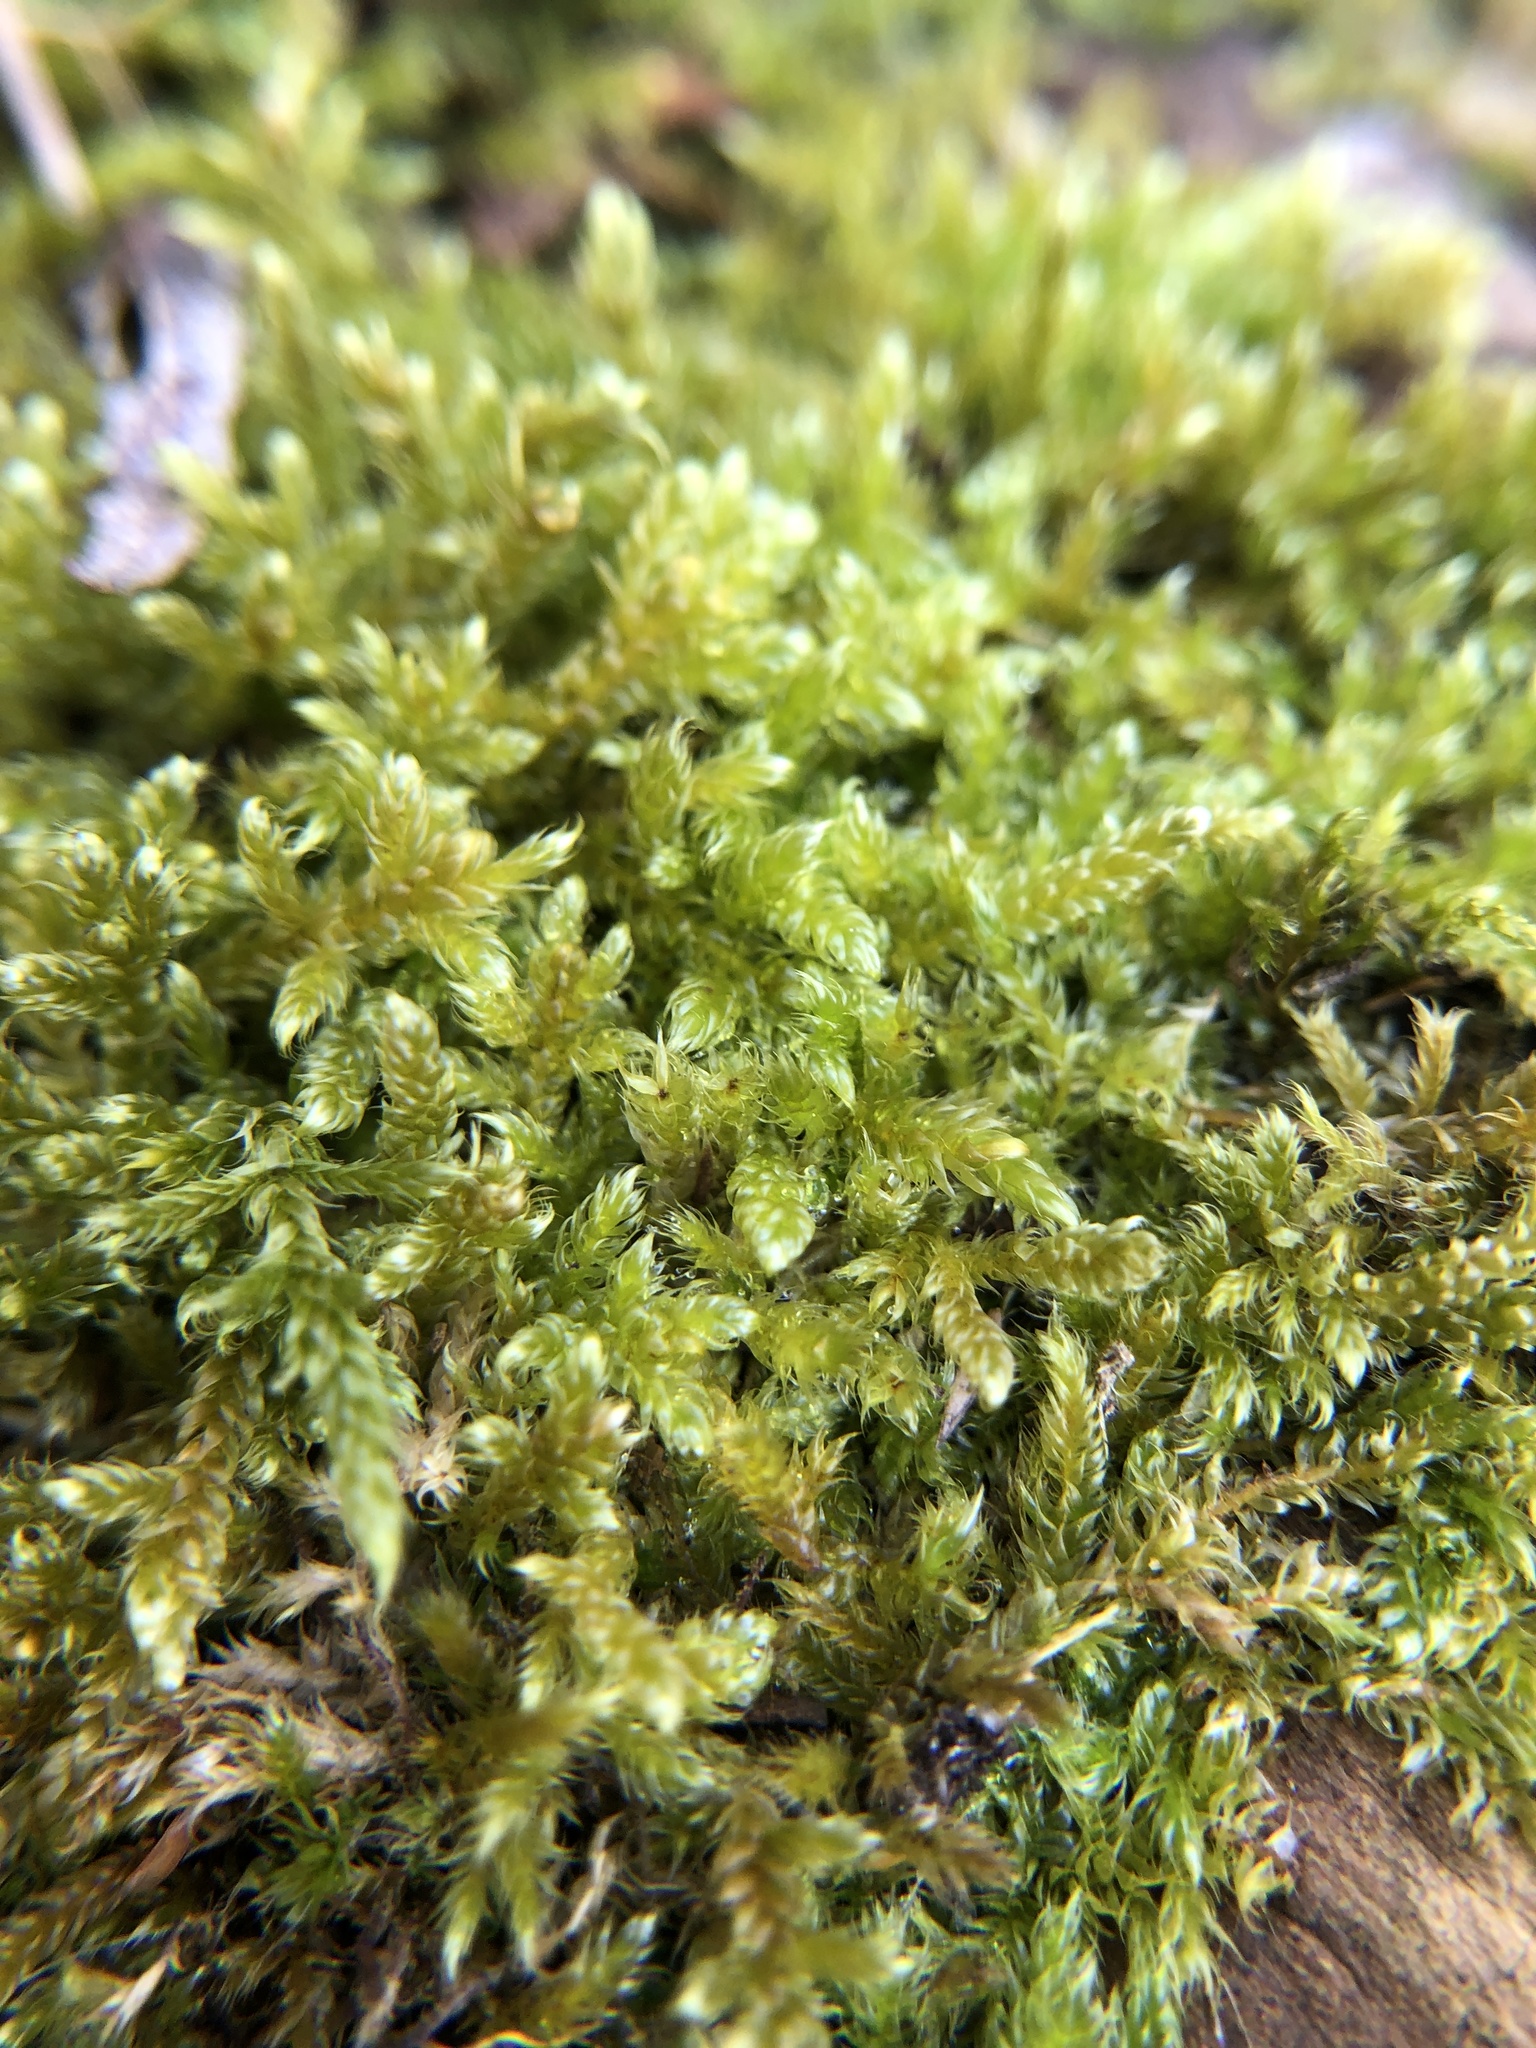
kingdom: Plantae
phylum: Bryophyta
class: Bryopsida
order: Hypnales
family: Hypnaceae
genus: Hypnum
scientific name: Hypnum cupressiforme
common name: Cypress-leaved plait-moss
